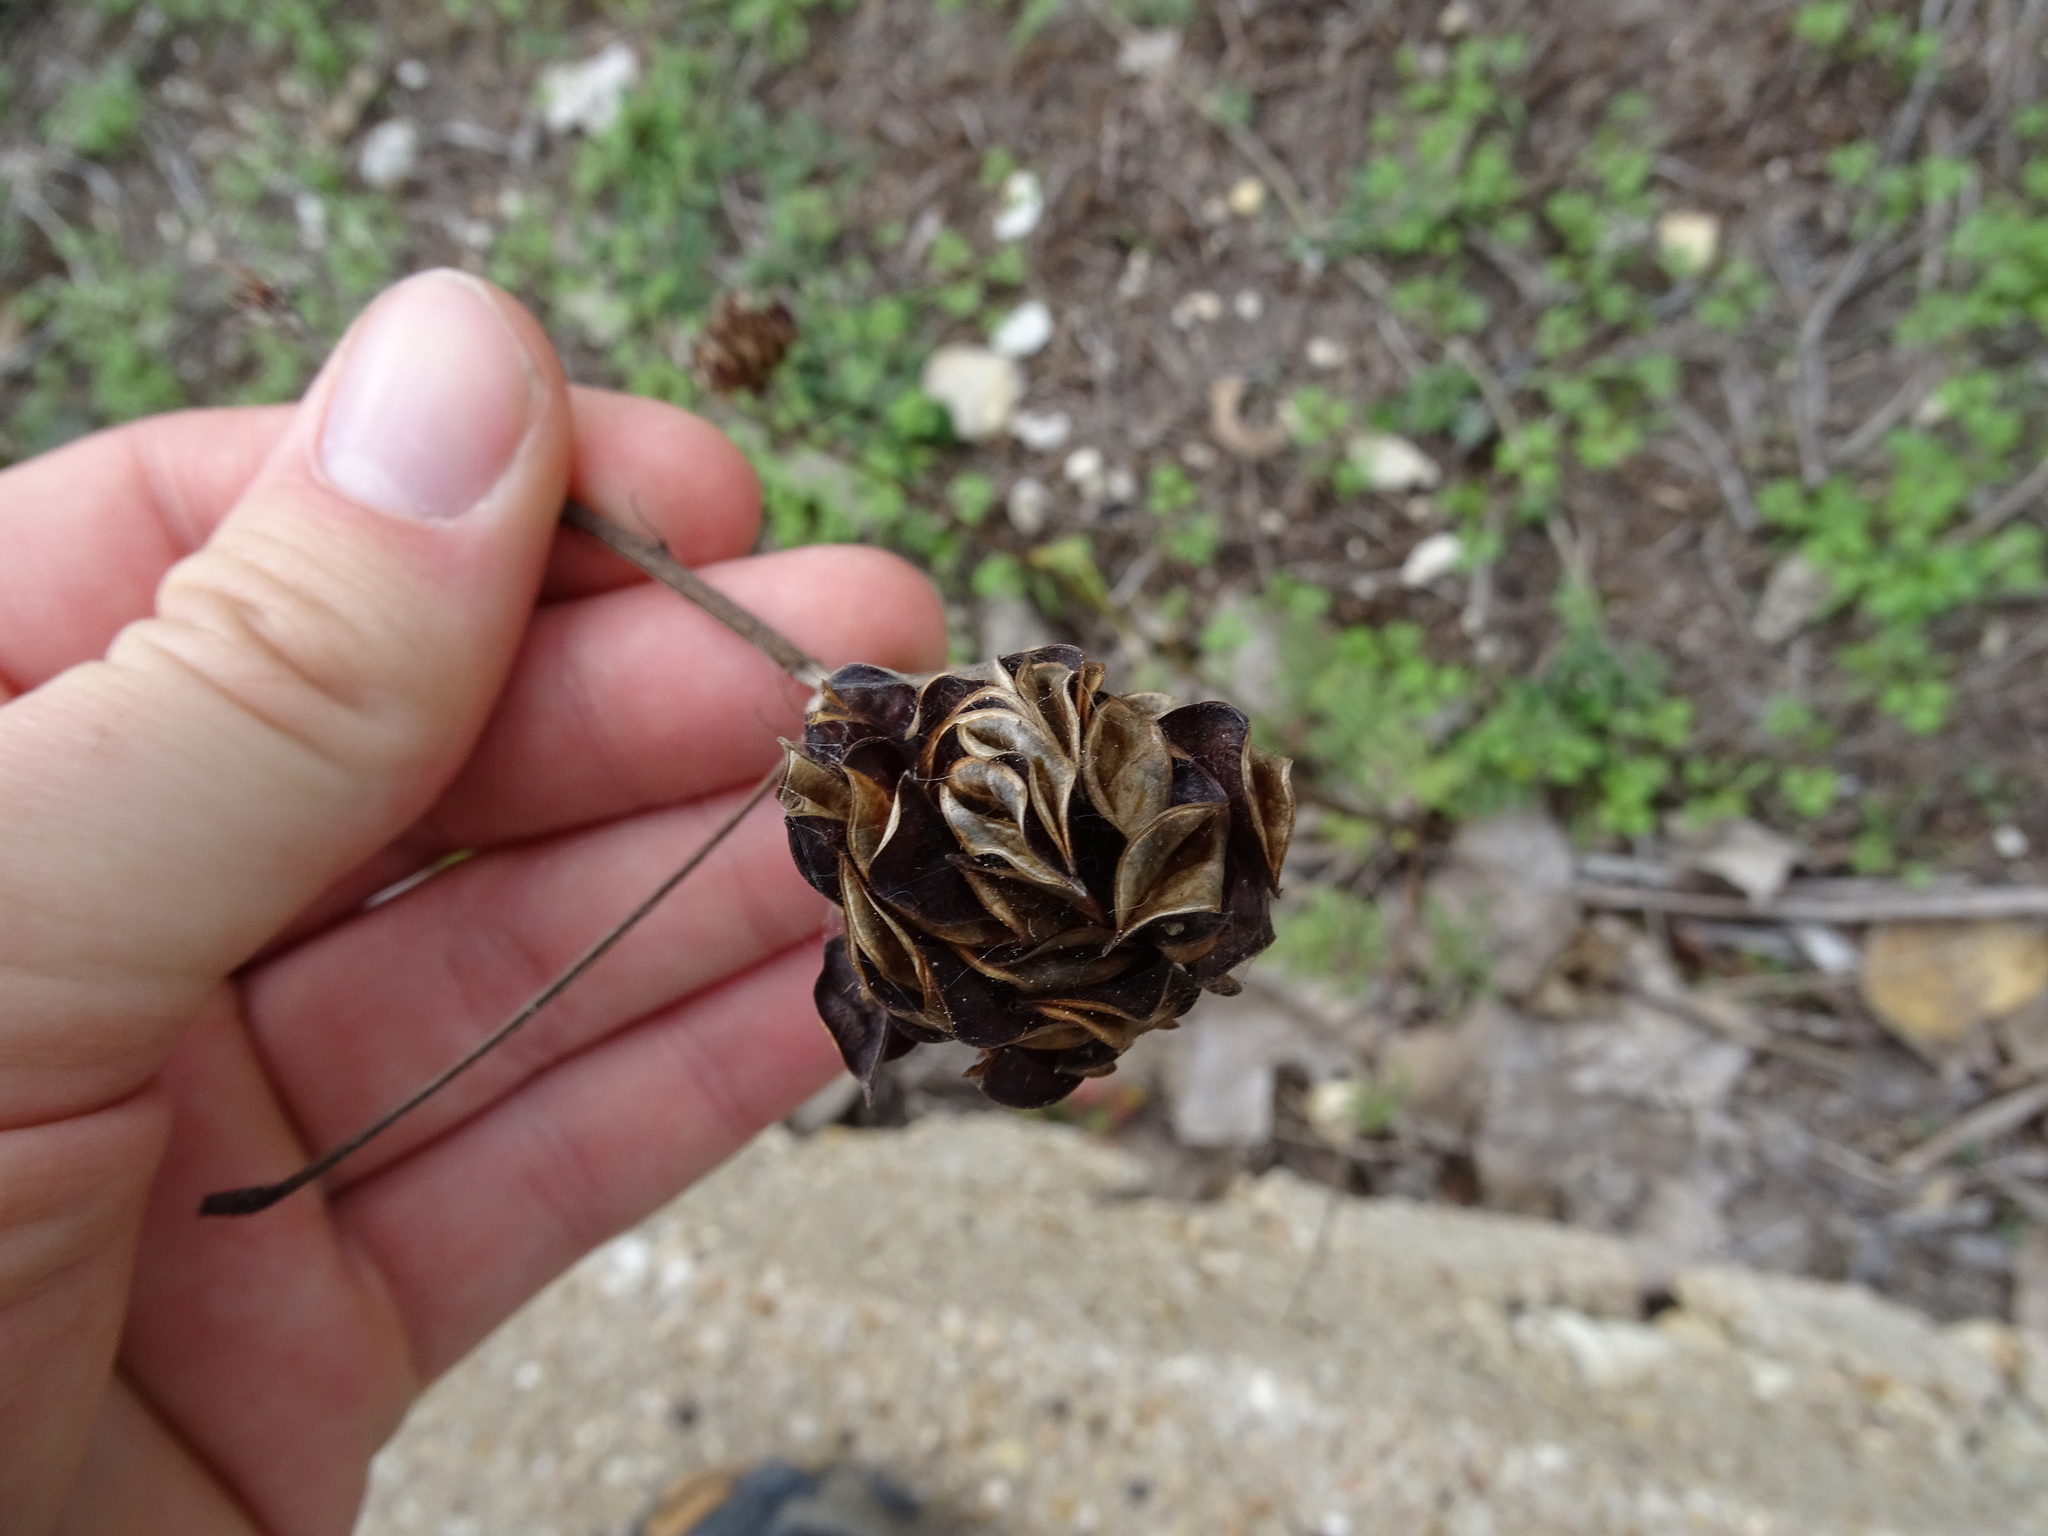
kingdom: Plantae
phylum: Tracheophyta
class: Magnoliopsida
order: Fabales
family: Fabaceae
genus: Desmanthus
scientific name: Desmanthus illinoensis
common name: Illinois bundle-flower
